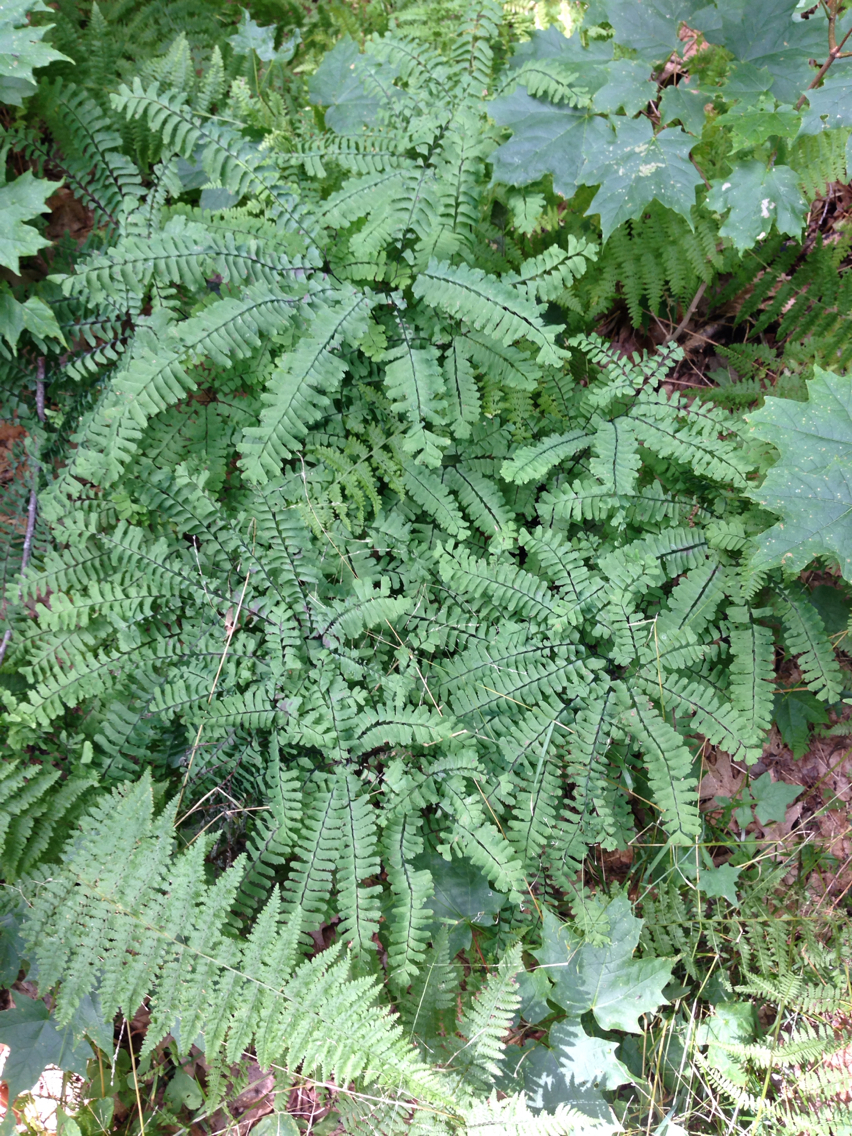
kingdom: Plantae
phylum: Tracheophyta
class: Polypodiopsida
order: Polypodiales
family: Pteridaceae
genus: Adiantum
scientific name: Adiantum pedatum
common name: Five-finger fern
